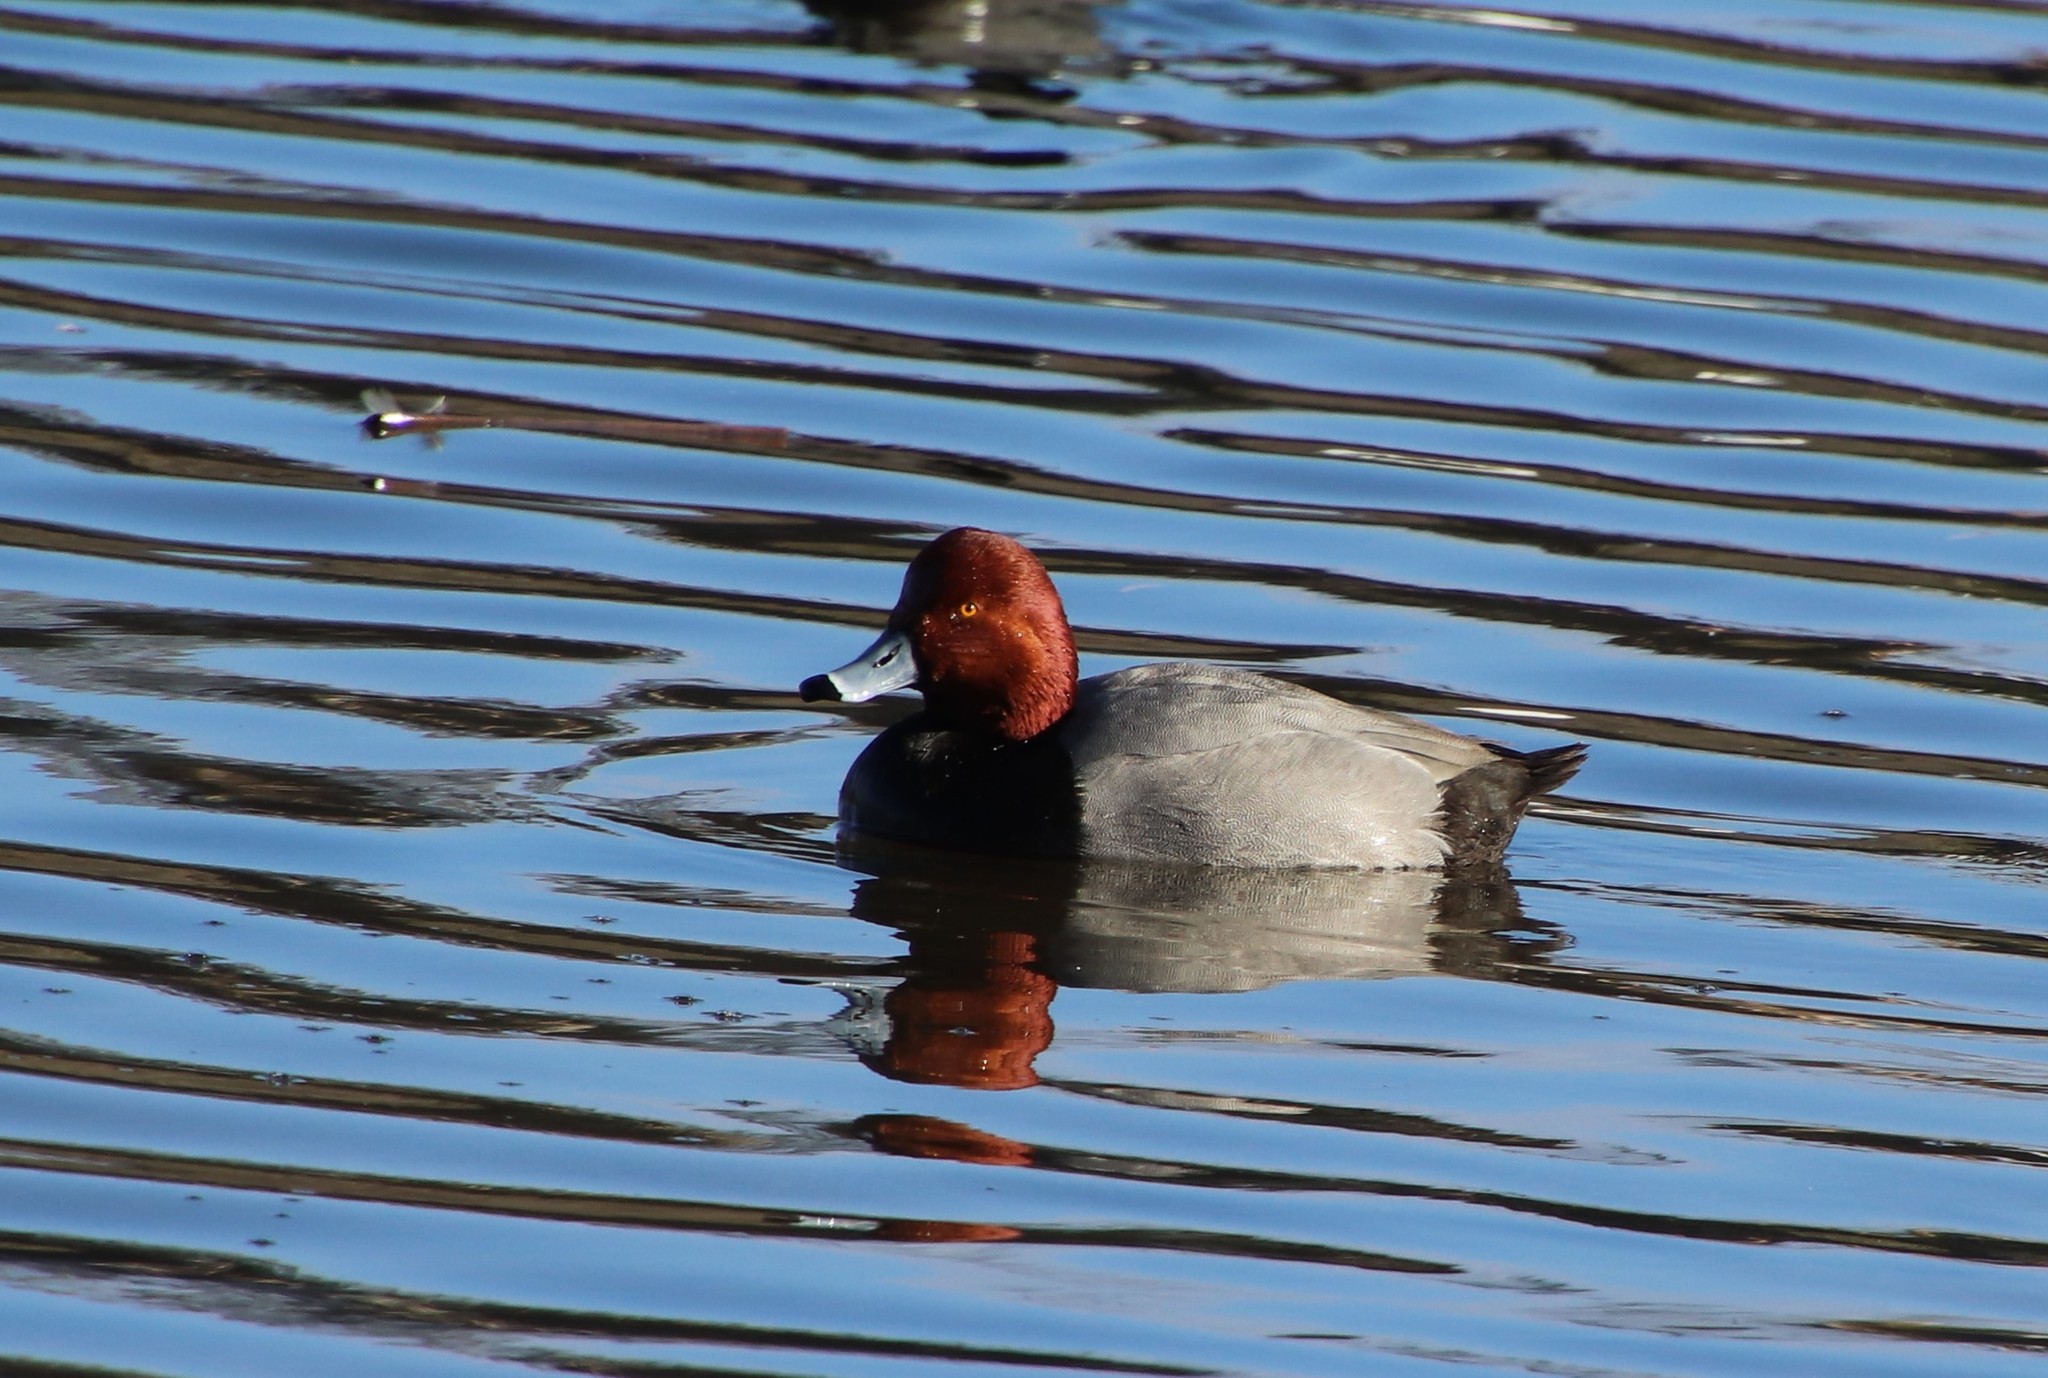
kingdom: Animalia
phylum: Chordata
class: Aves
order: Anseriformes
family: Anatidae
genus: Aythya
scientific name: Aythya americana
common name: Redhead
